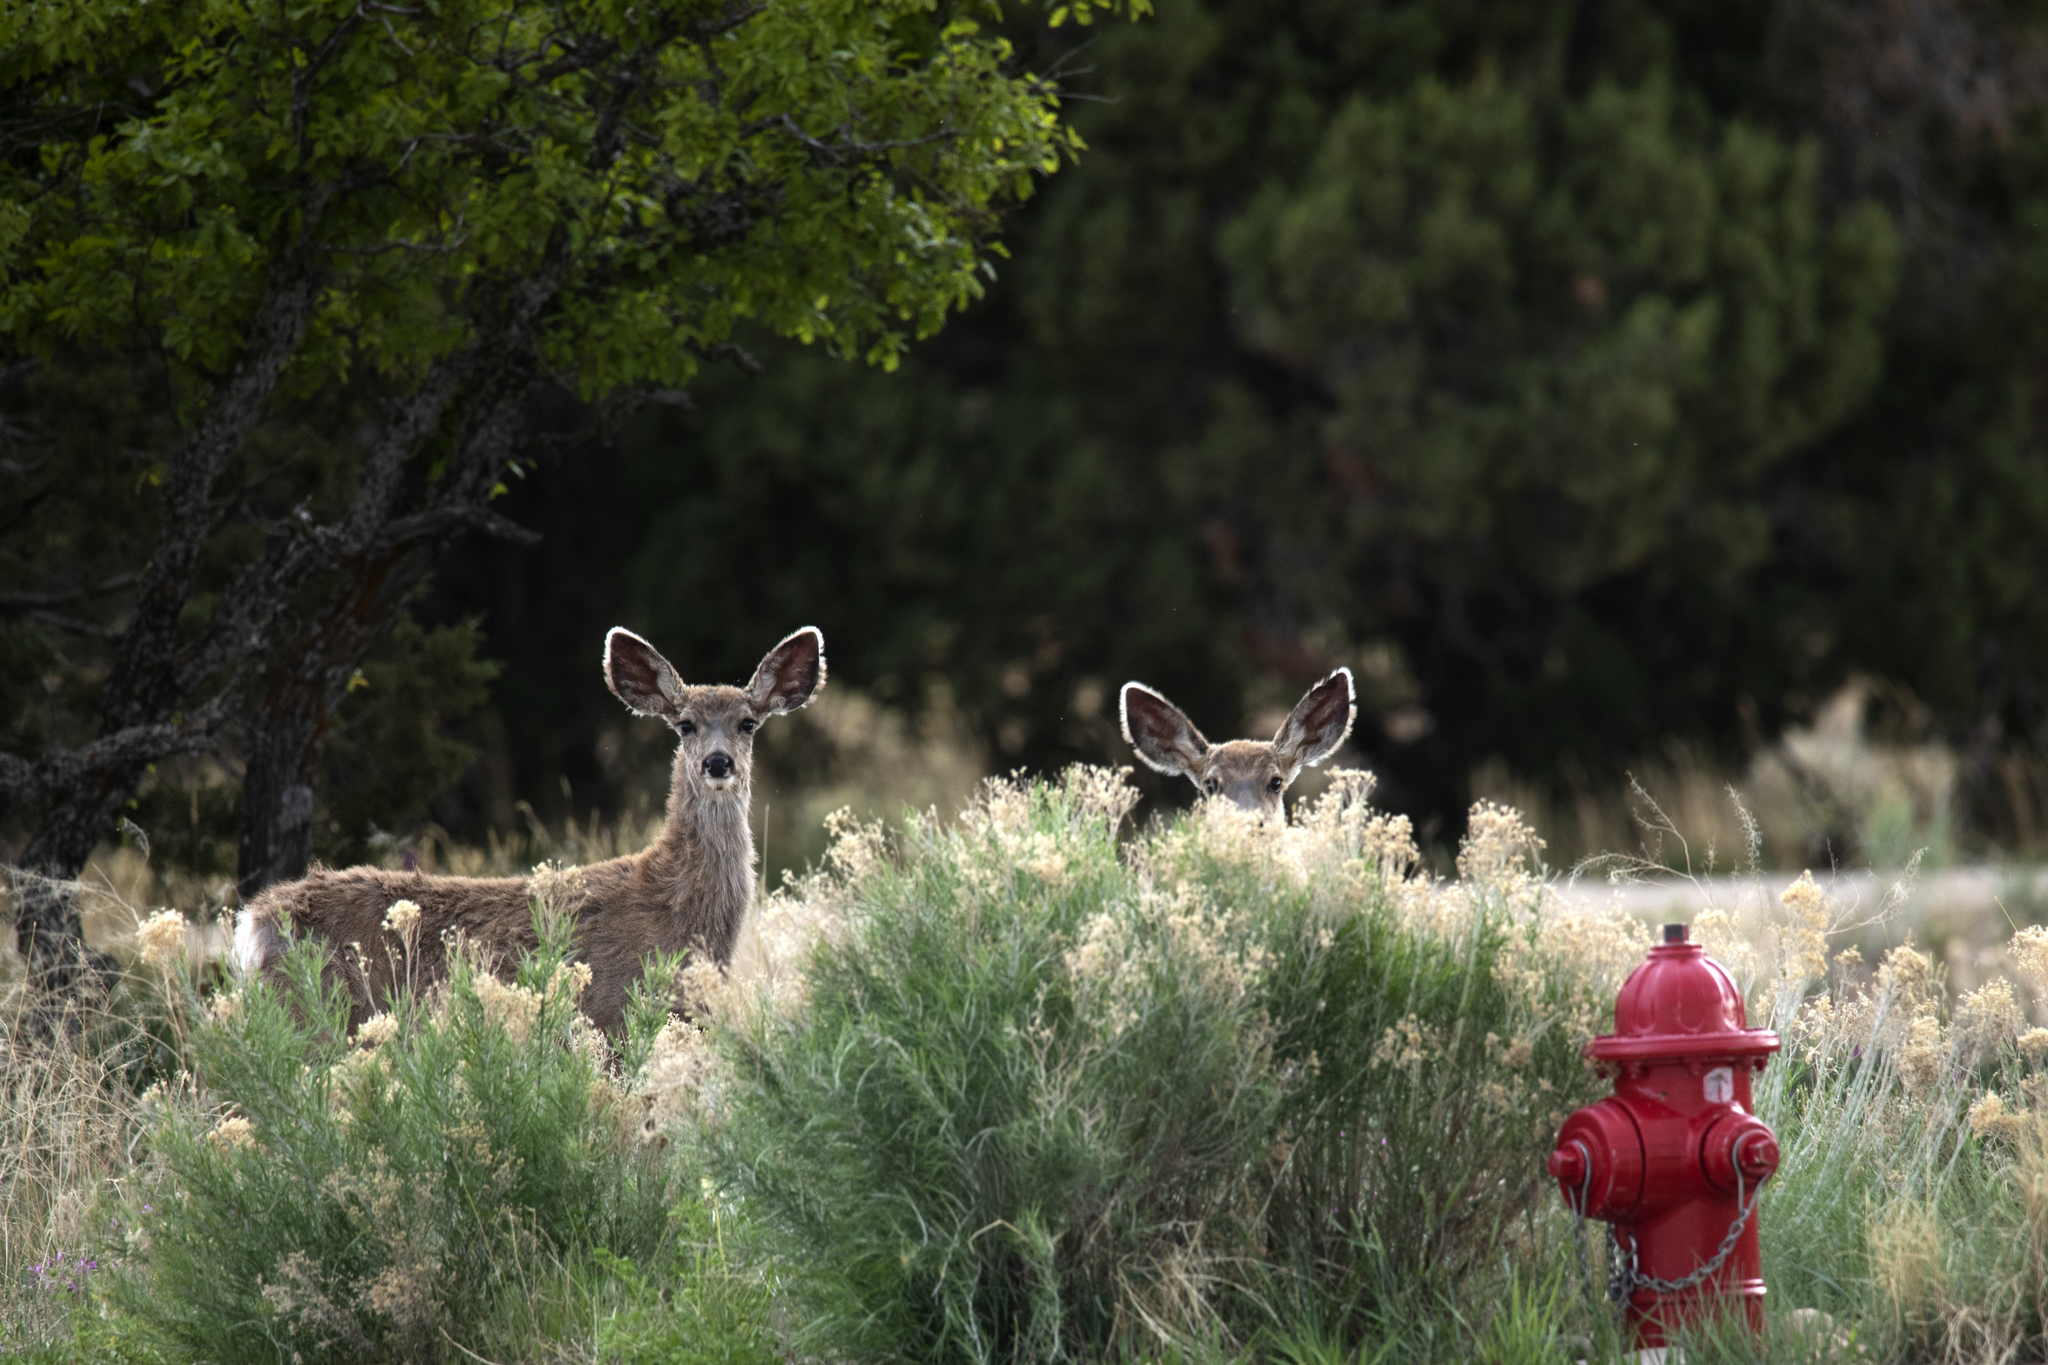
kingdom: Animalia
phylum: Chordata
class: Mammalia
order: Artiodactyla
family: Cervidae
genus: Odocoileus
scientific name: Odocoileus hemionus
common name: Mule deer
